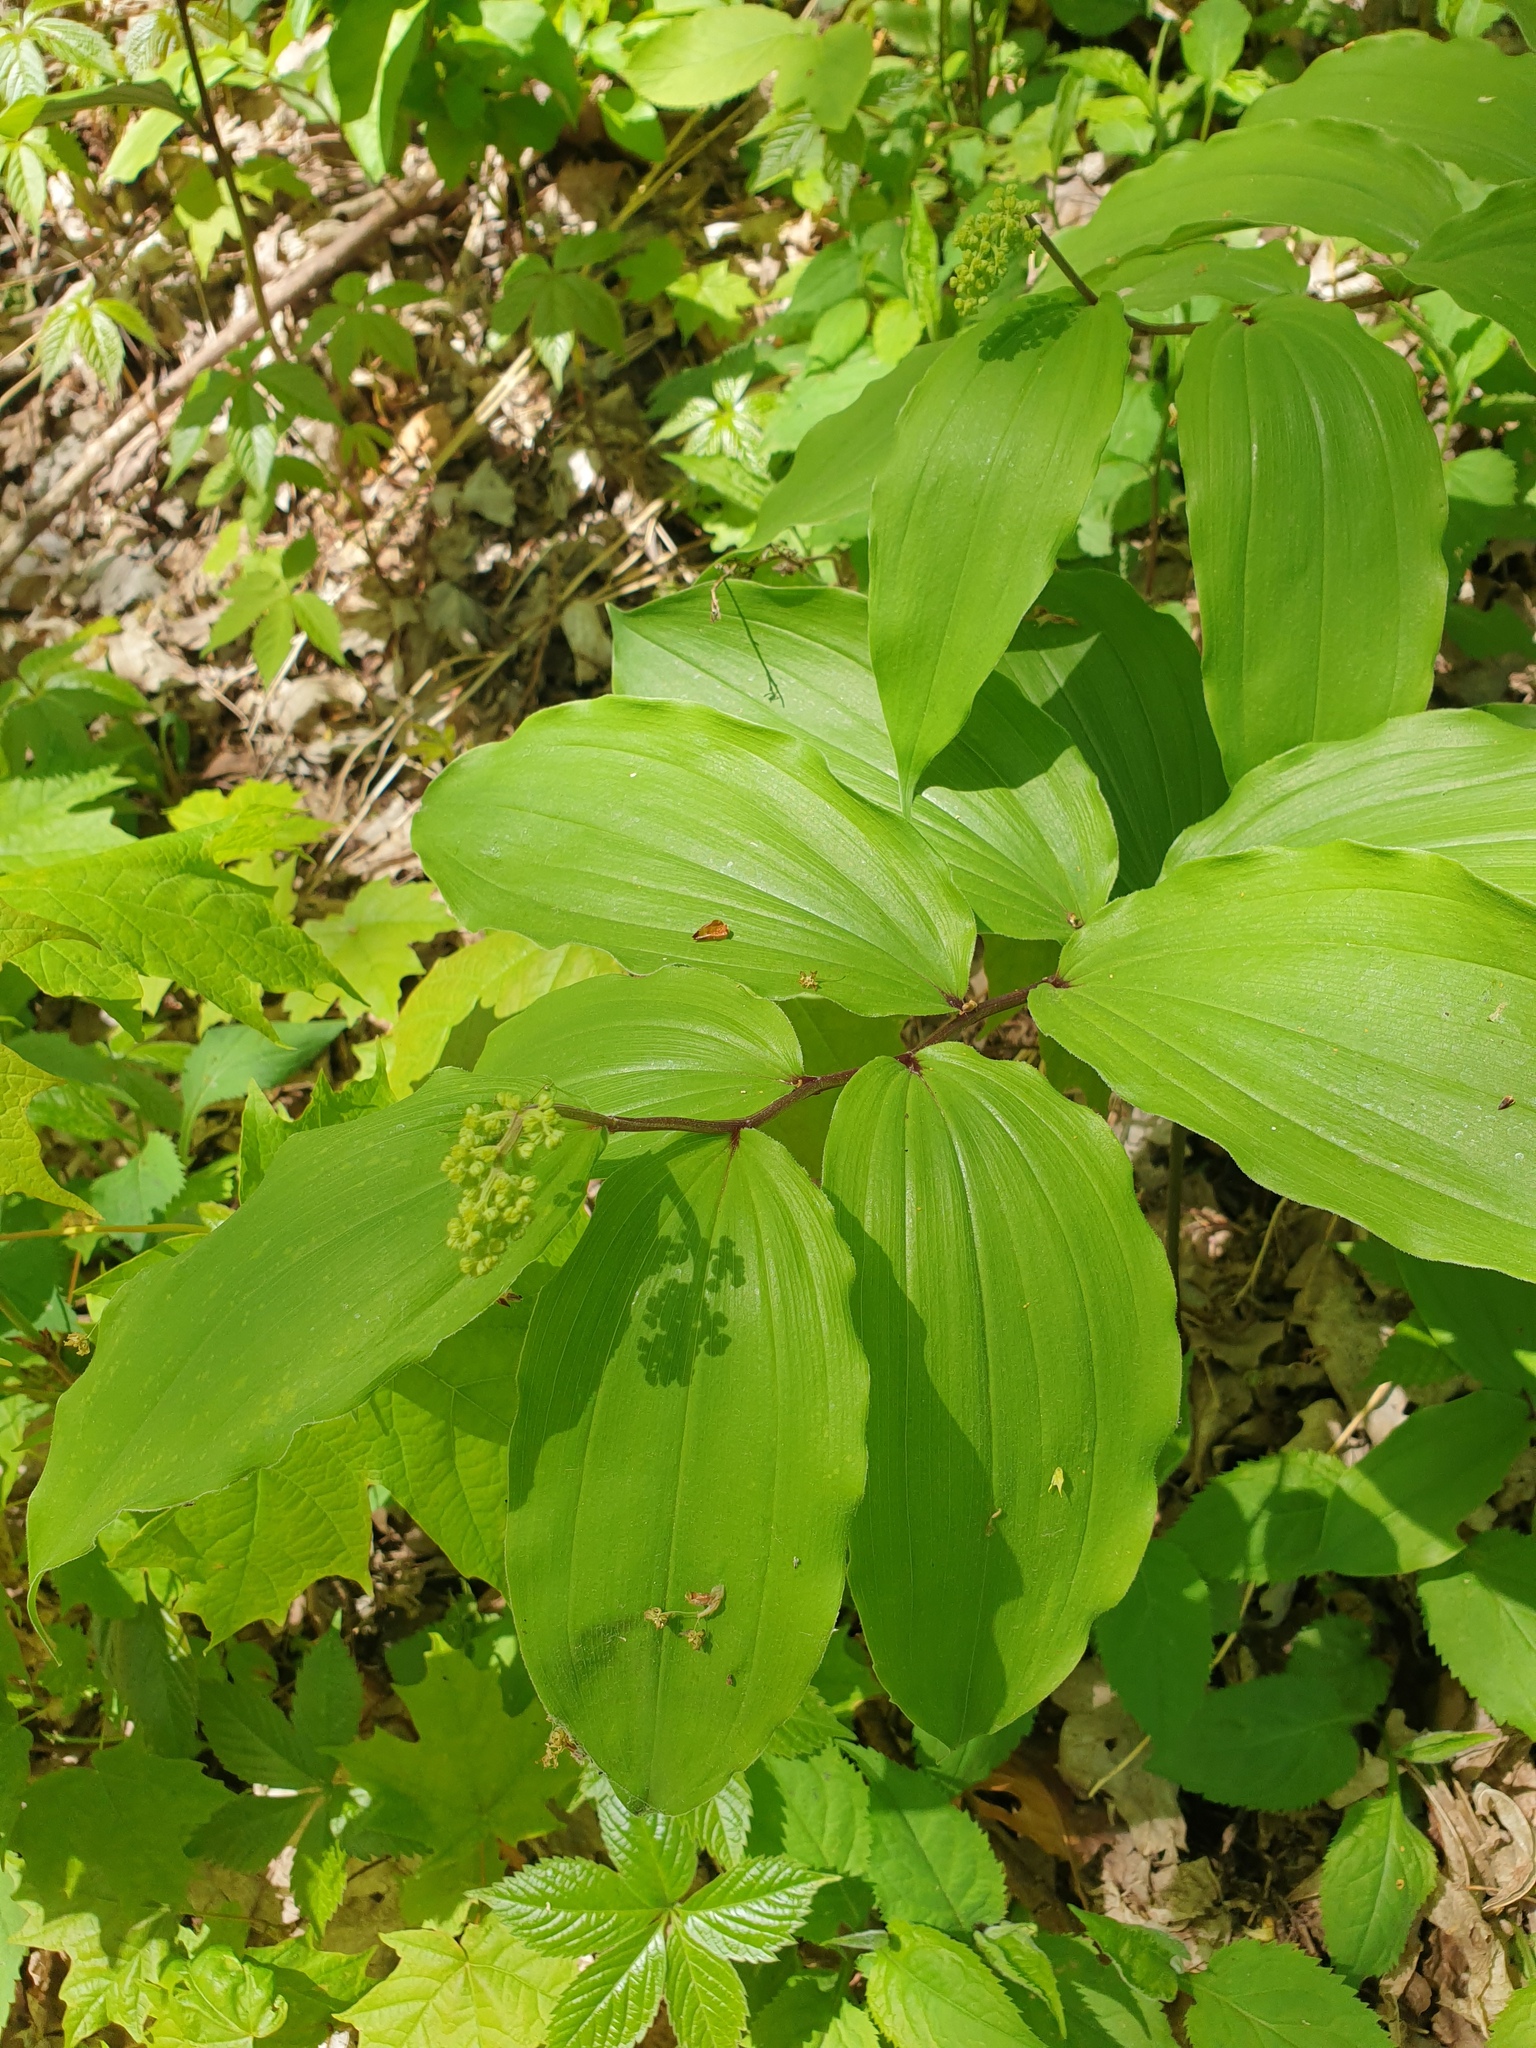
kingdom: Plantae
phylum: Tracheophyta
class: Liliopsida
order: Asparagales
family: Asparagaceae
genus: Maianthemum
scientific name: Maianthemum racemosum
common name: False spikenard
